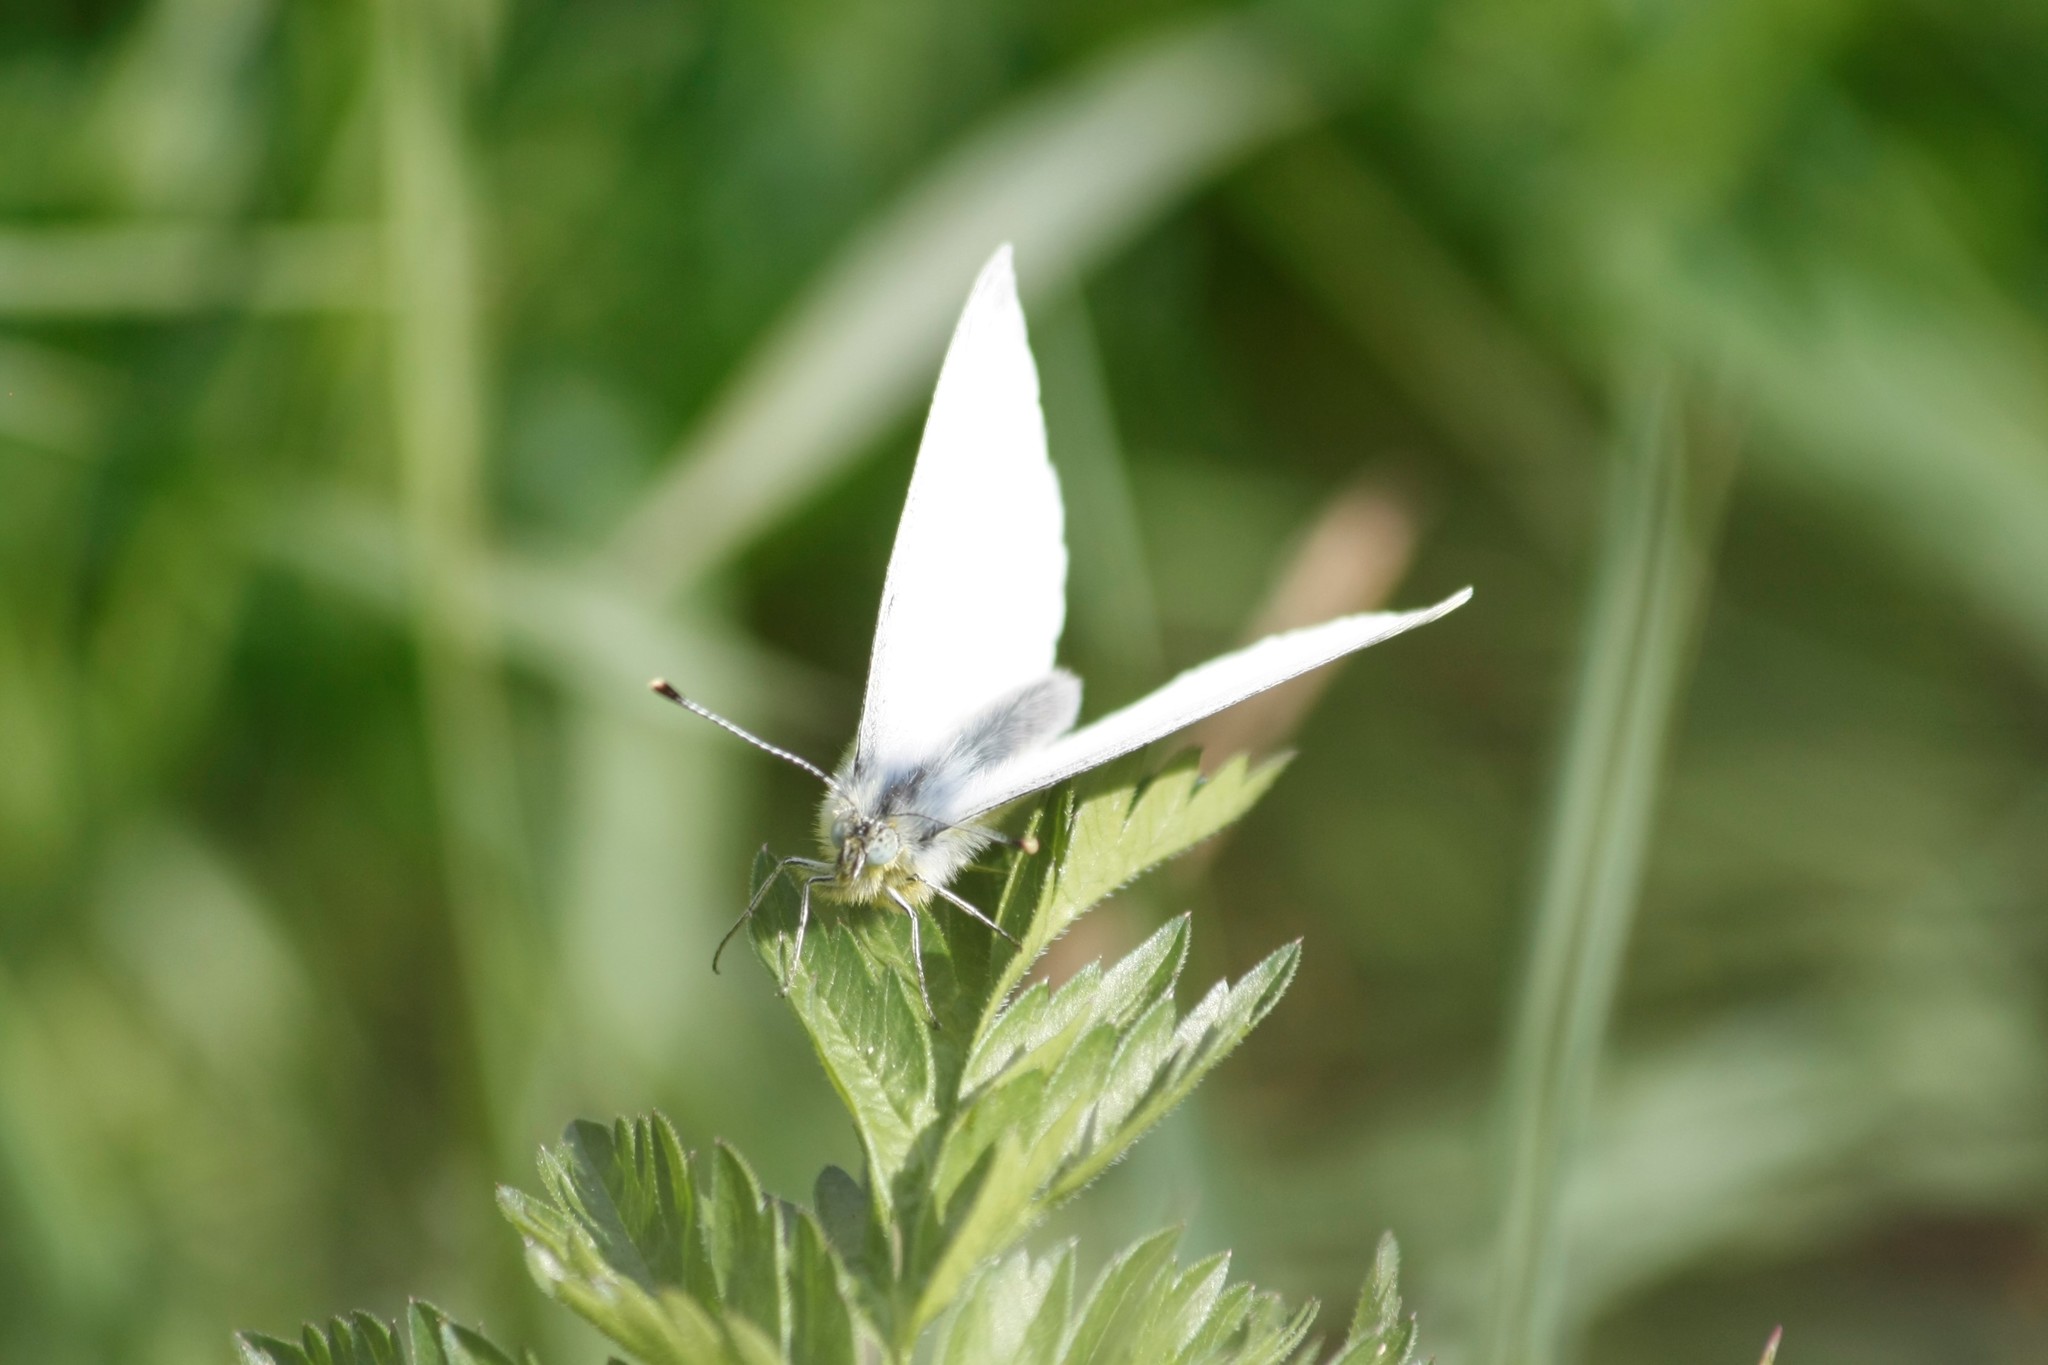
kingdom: Animalia
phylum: Arthropoda
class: Insecta
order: Lepidoptera
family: Pieridae
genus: Pieris
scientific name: Pieris napi
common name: Green-veined white
